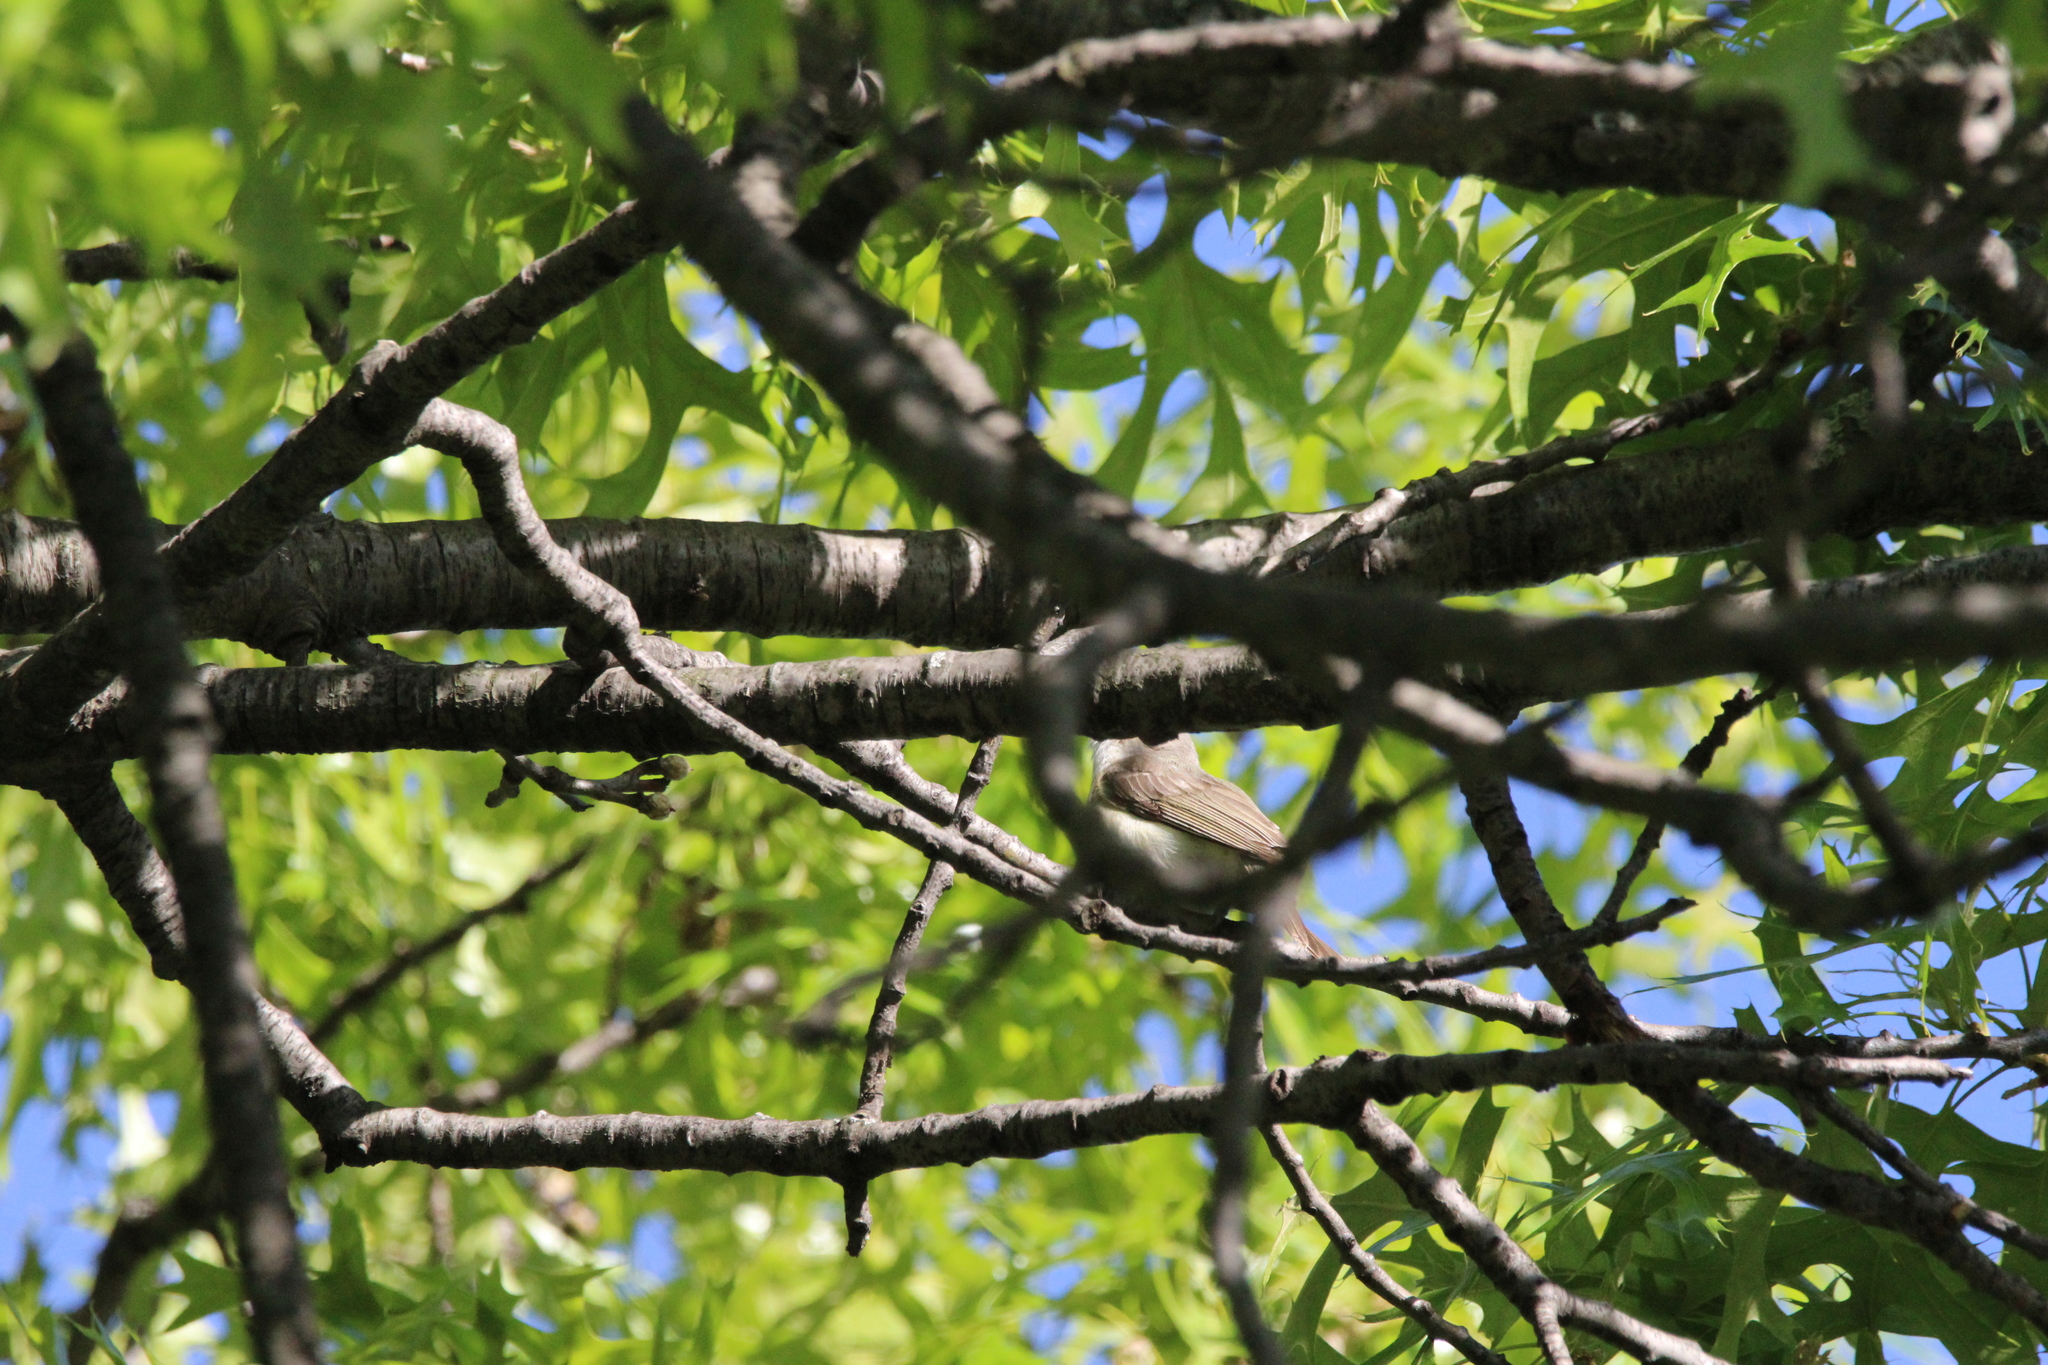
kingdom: Animalia
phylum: Chordata
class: Aves
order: Passeriformes
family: Vireonidae
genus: Vireo
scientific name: Vireo gilvus
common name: Warbling vireo
